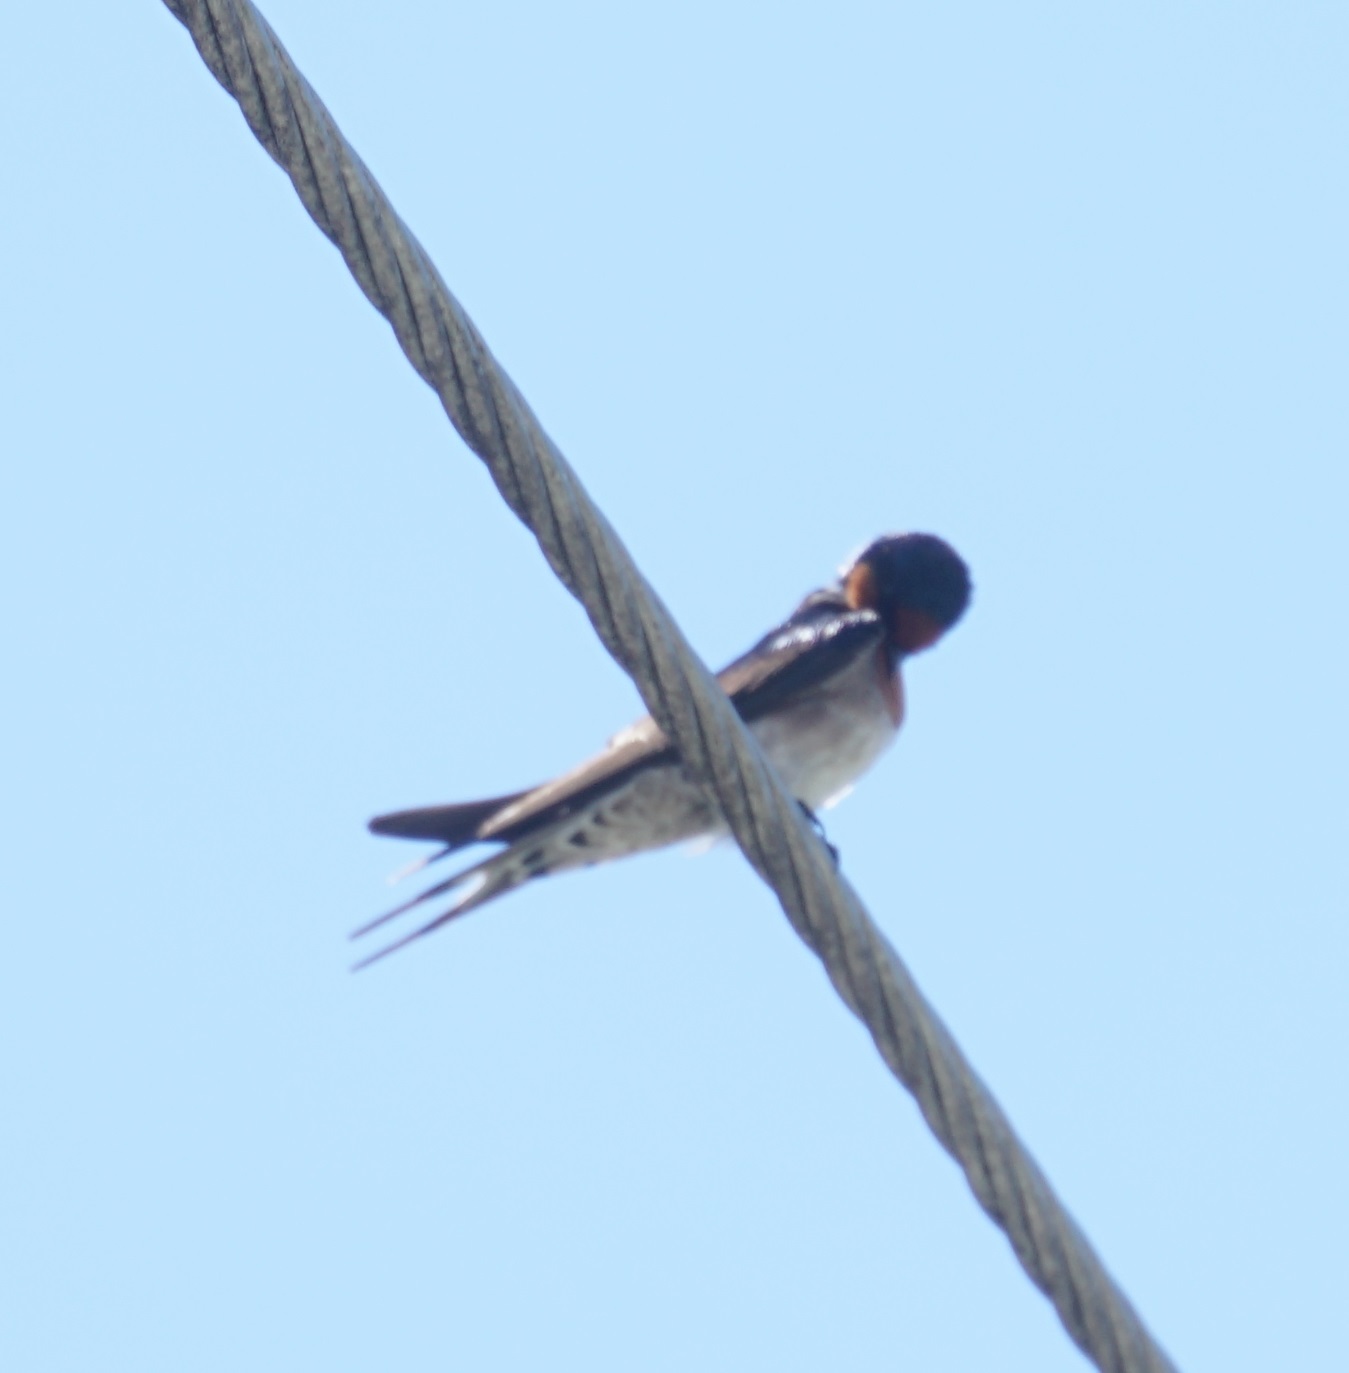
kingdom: Animalia
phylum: Chordata
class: Aves
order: Passeriformes
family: Hirundinidae
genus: Hirundo
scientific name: Hirundo neoxena
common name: Welcome swallow
